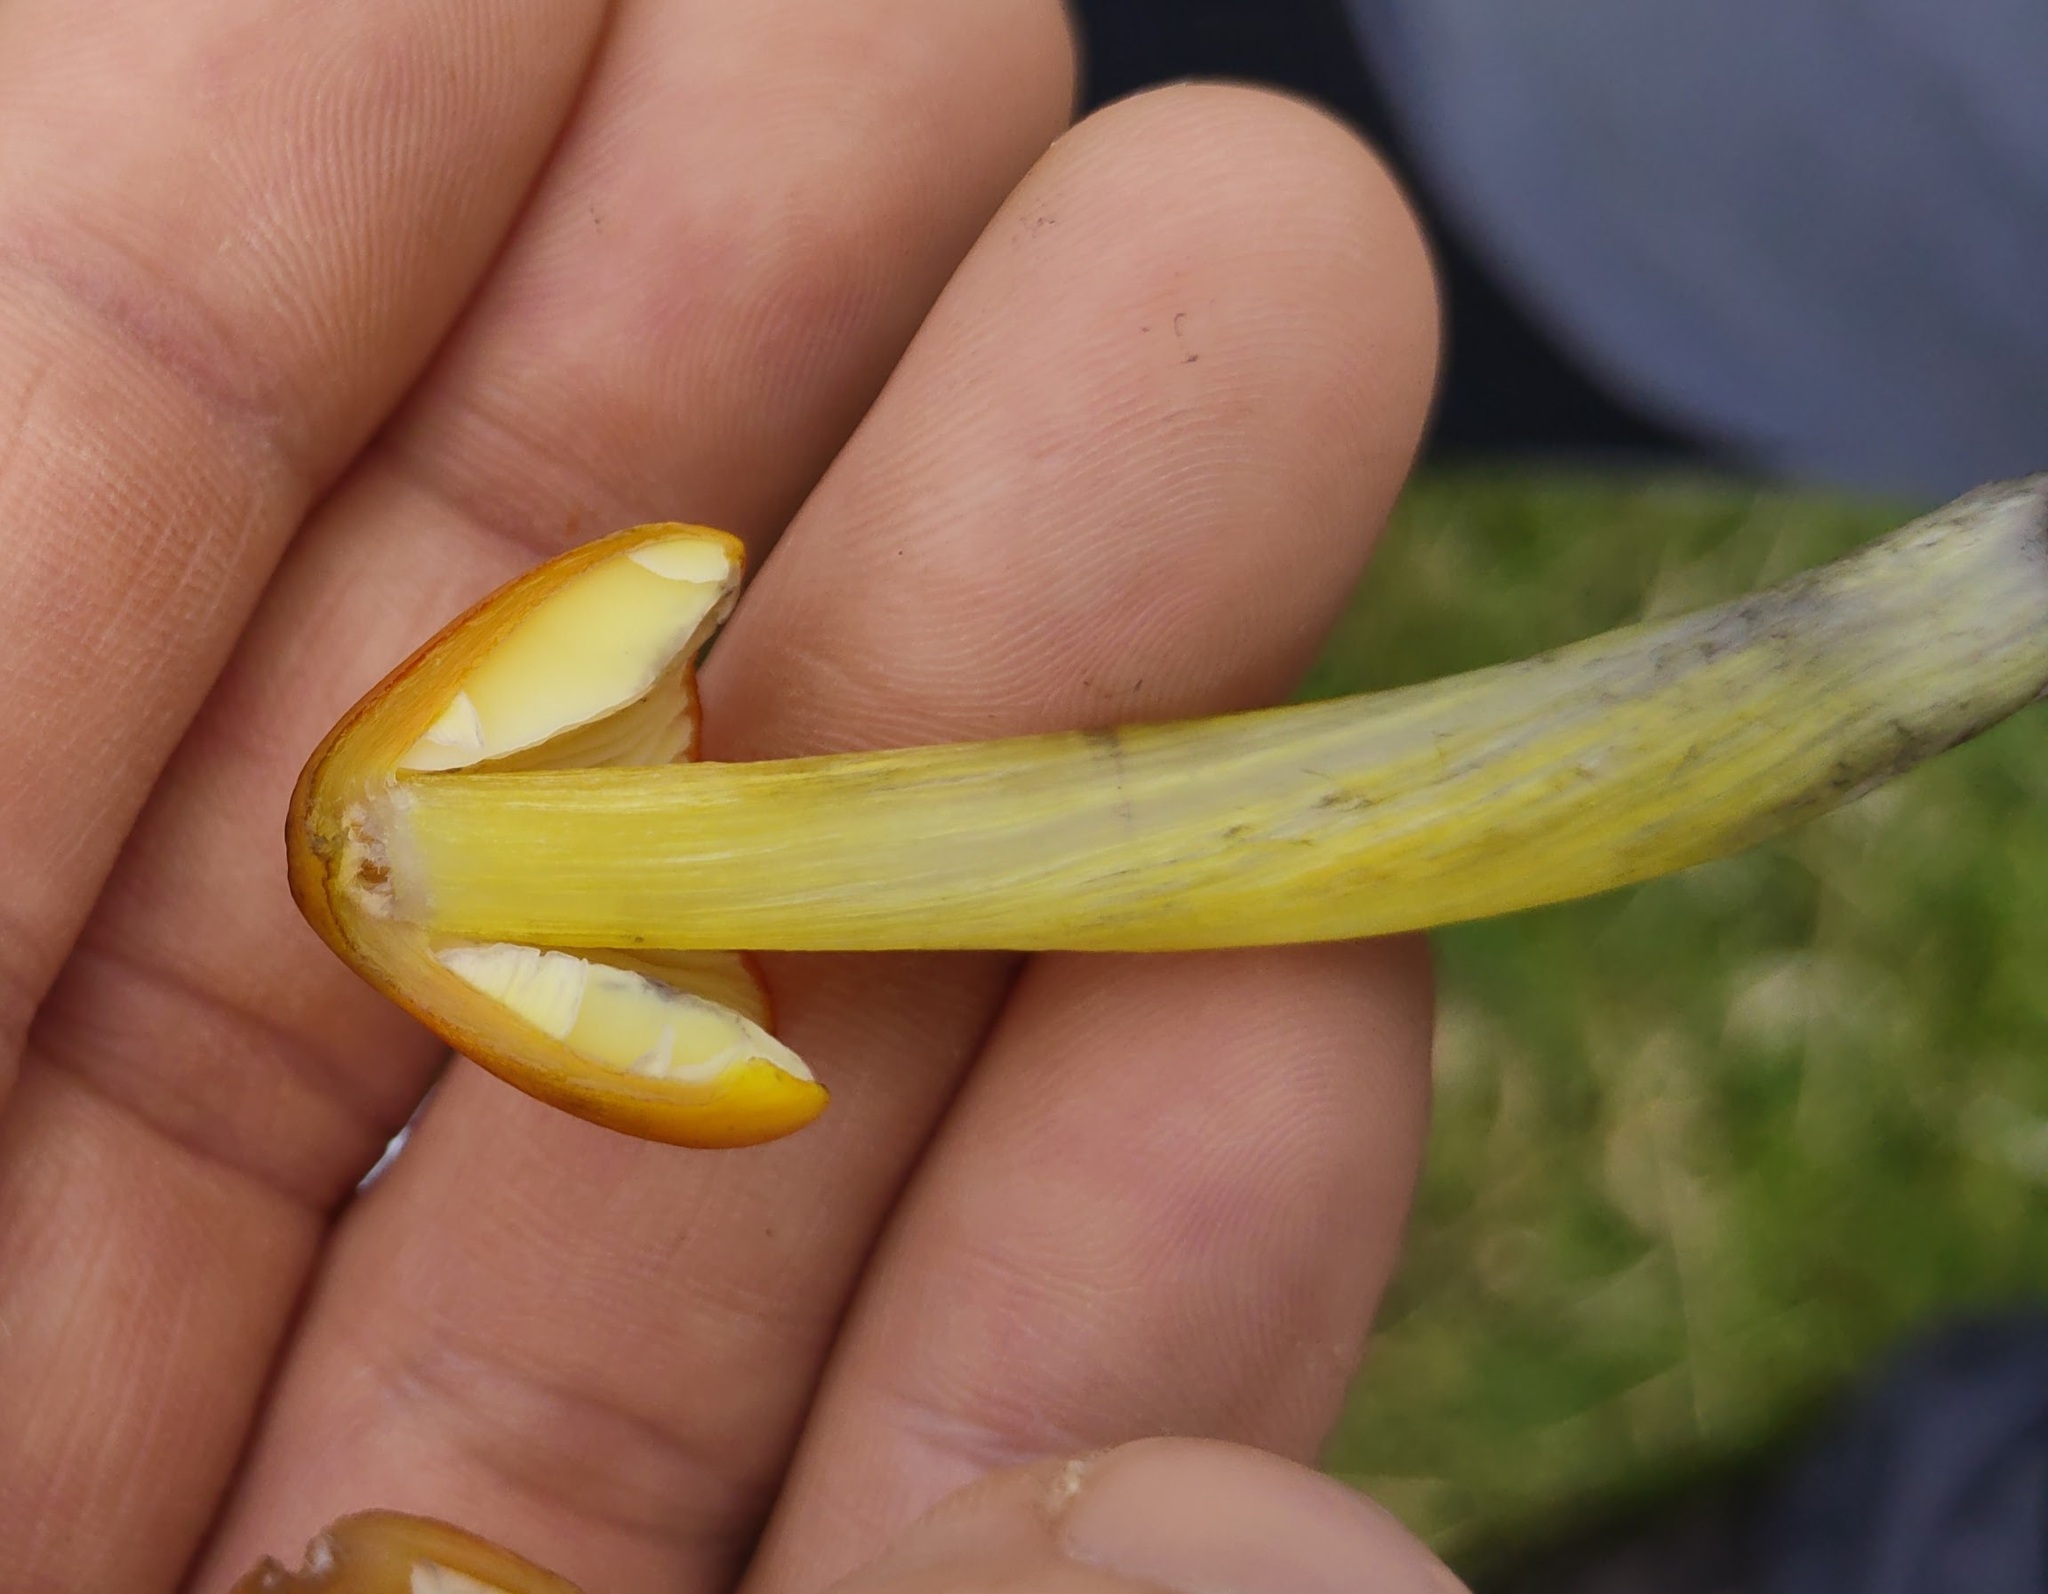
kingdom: Fungi
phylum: Basidiomycota
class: Agaricomycetes
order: Agaricales
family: Hygrophoraceae
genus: Hygrocybe
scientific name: Hygrocybe conica
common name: Blackening wax-cap
